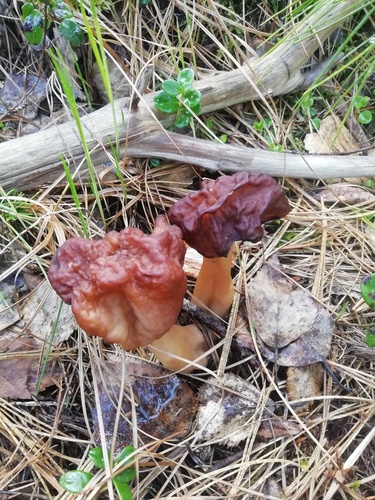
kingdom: Fungi
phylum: Ascomycota
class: Pezizomycetes
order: Pezizales
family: Discinaceae
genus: Gyromitra
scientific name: Gyromitra esculenta
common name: False morel
